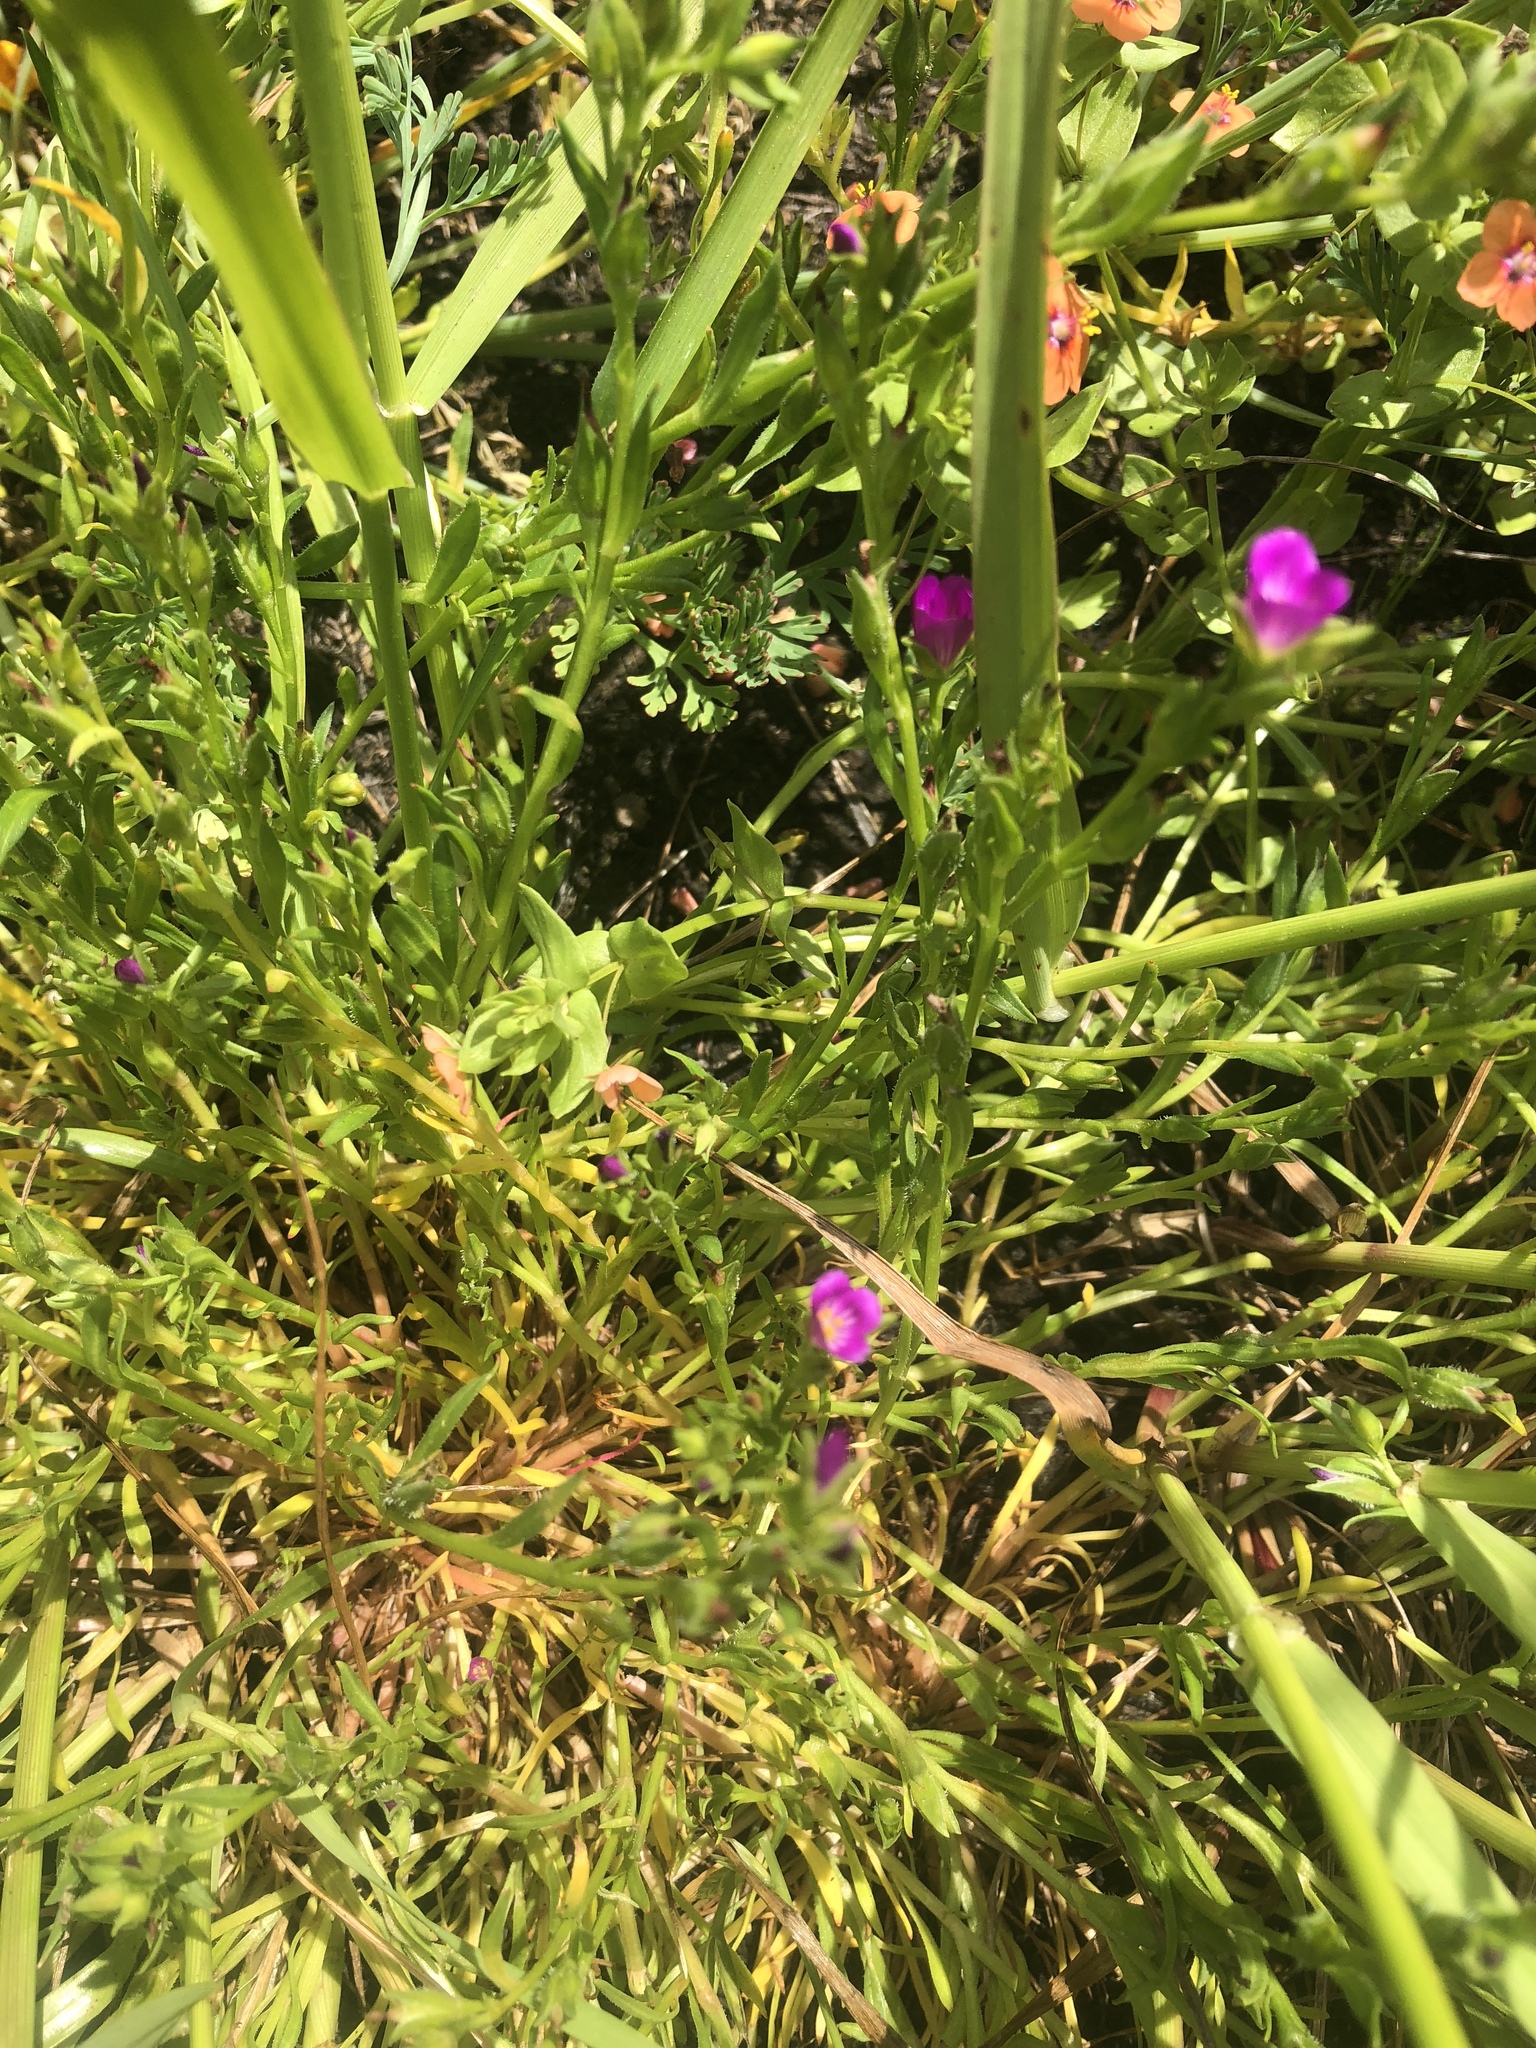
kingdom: Plantae
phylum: Tracheophyta
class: Magnoliopsida
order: Caryophyllales
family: Montiaceae
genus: Calandrinia
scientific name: Calandrinia menziesii
